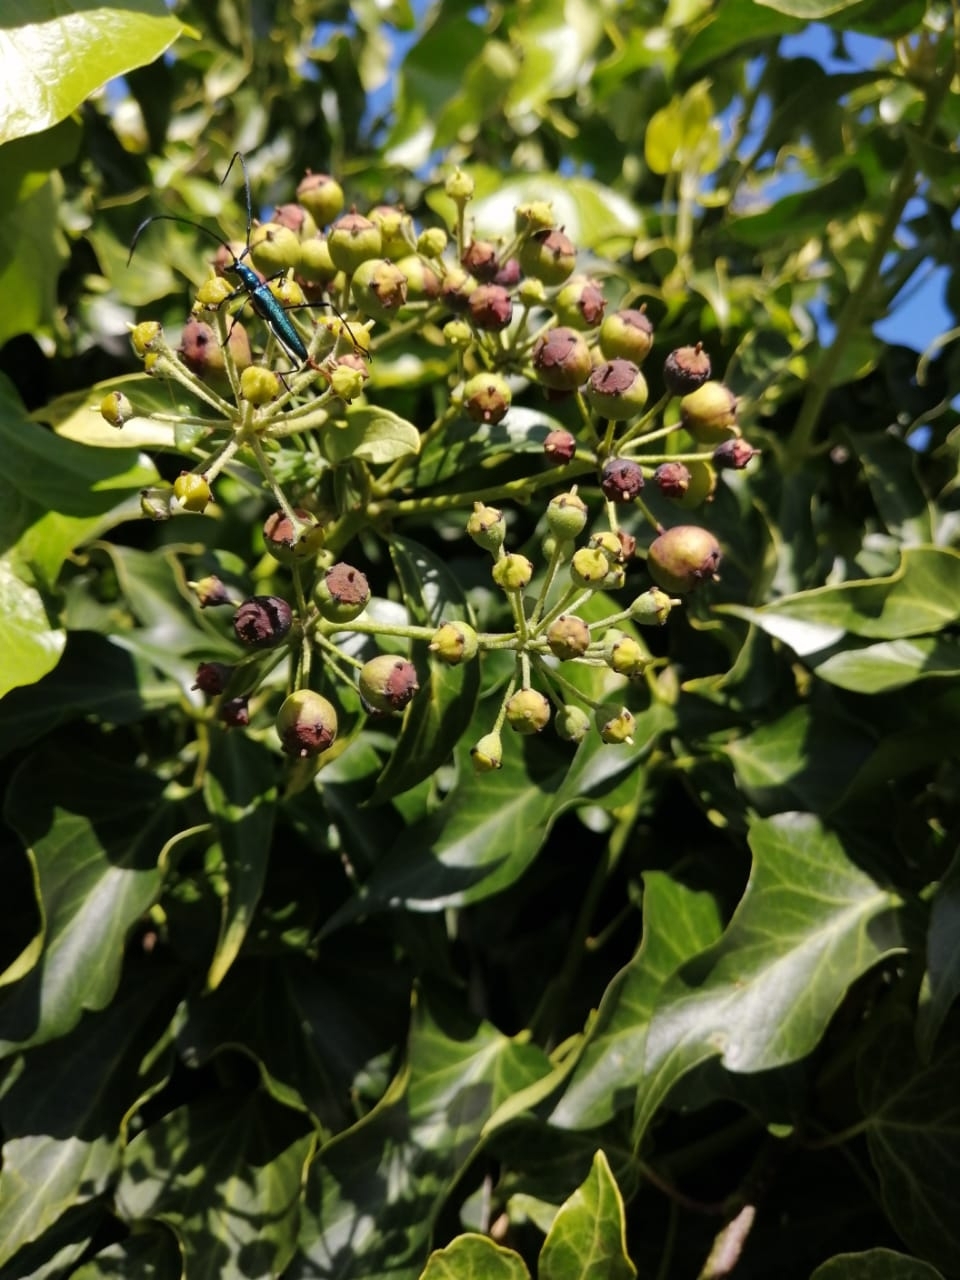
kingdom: Animalia
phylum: Arthropoda
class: Insecta
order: Coleoptera
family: Cerambycidae
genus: Promeces
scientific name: Promeces longipes
